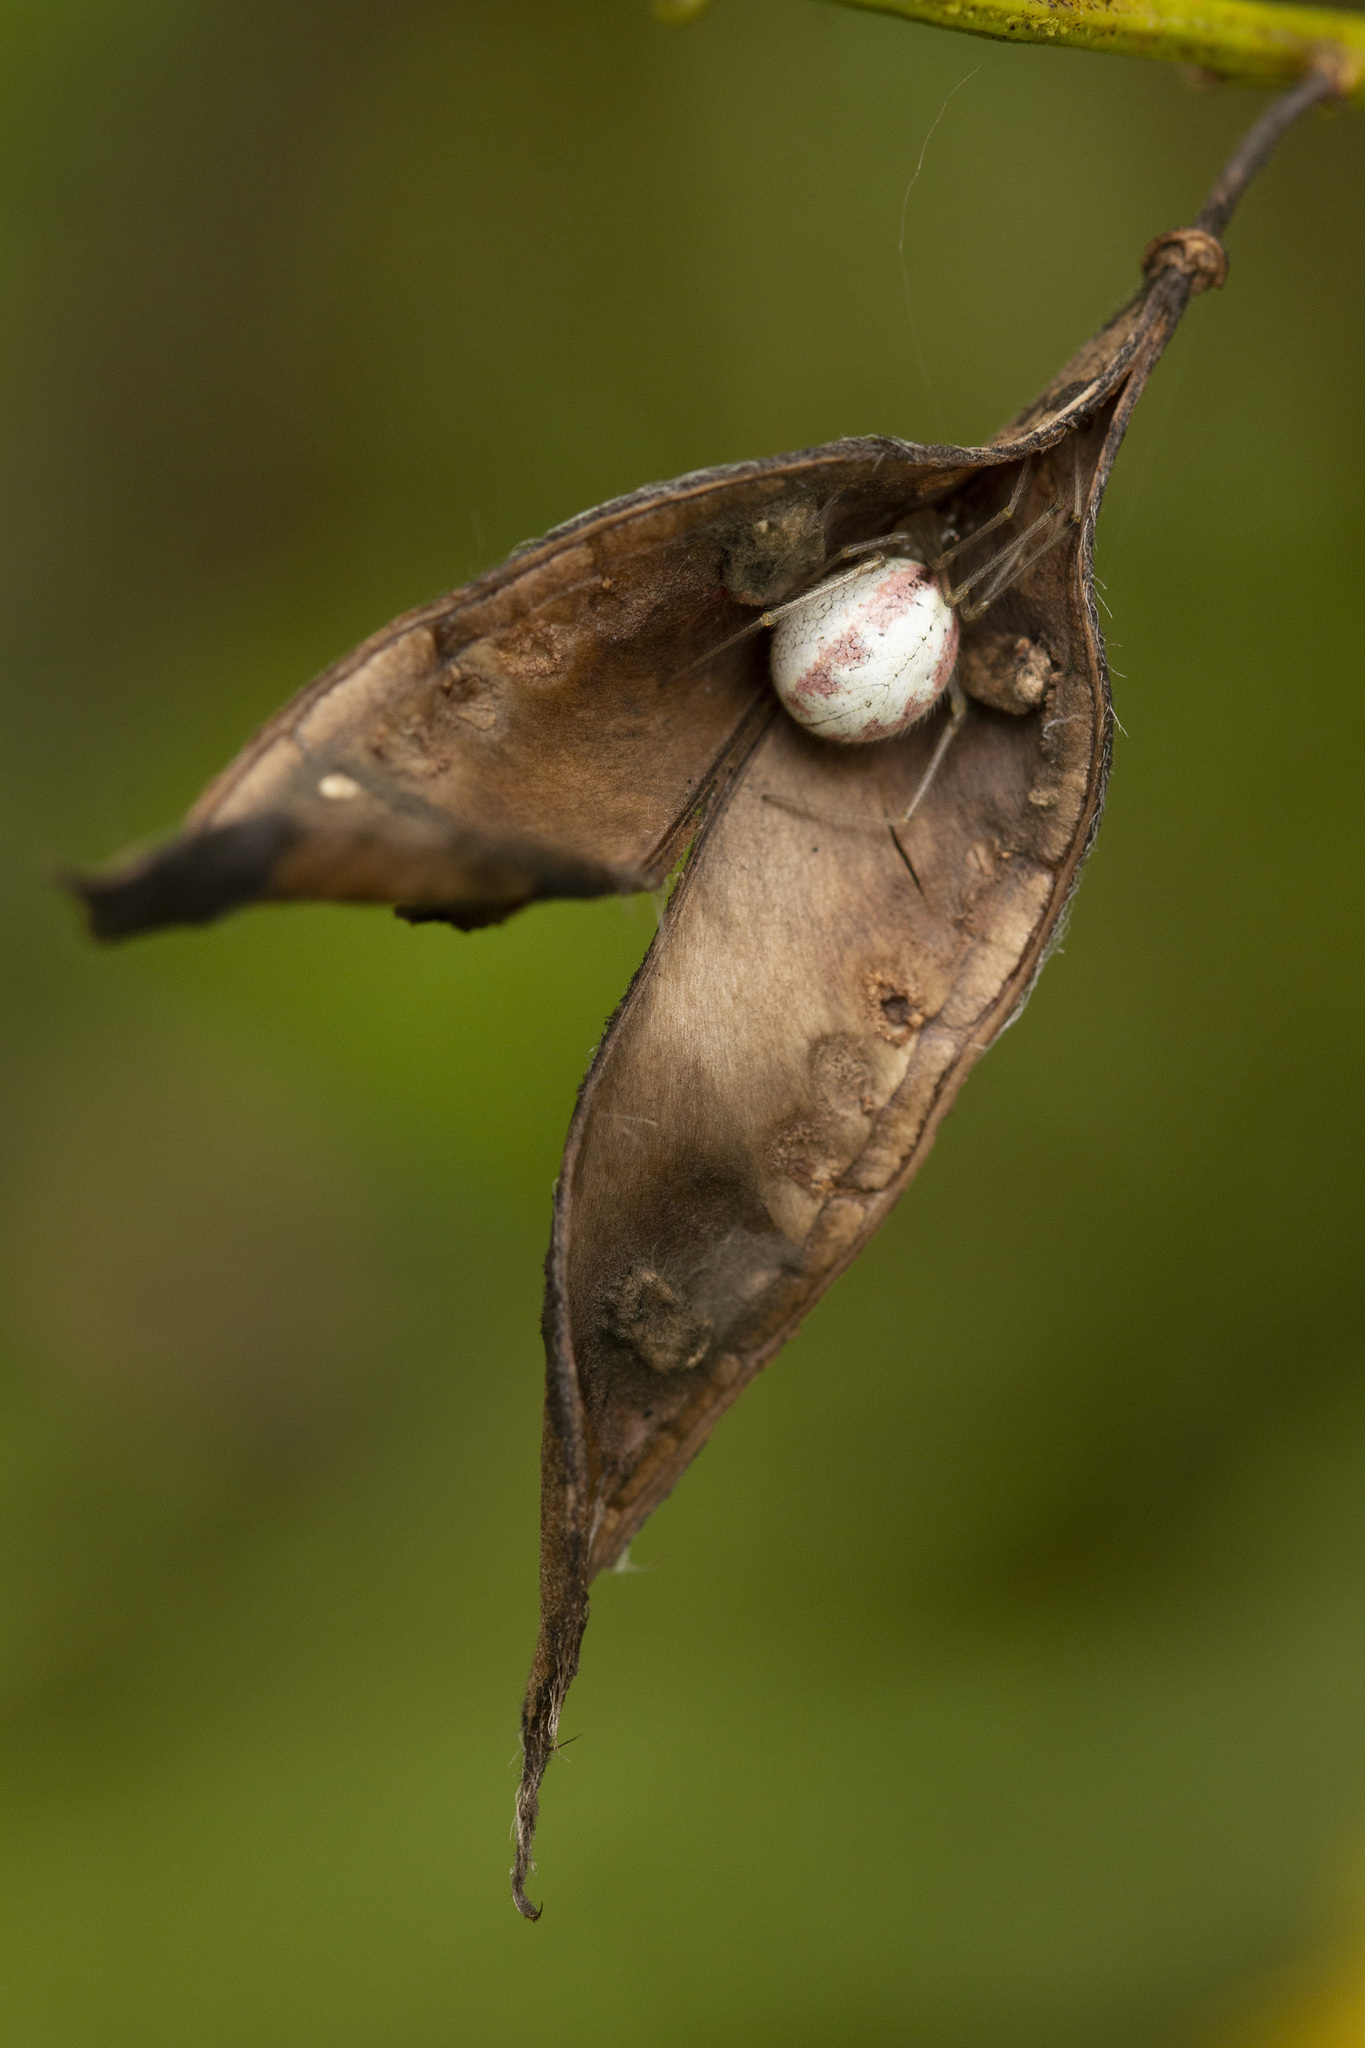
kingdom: Animalia
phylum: Arthropoda
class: Arachnida
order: Araneae
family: Theridiidae
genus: Enoplognatha
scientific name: Enoplognatha ovata
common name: Common candy-striped spider
